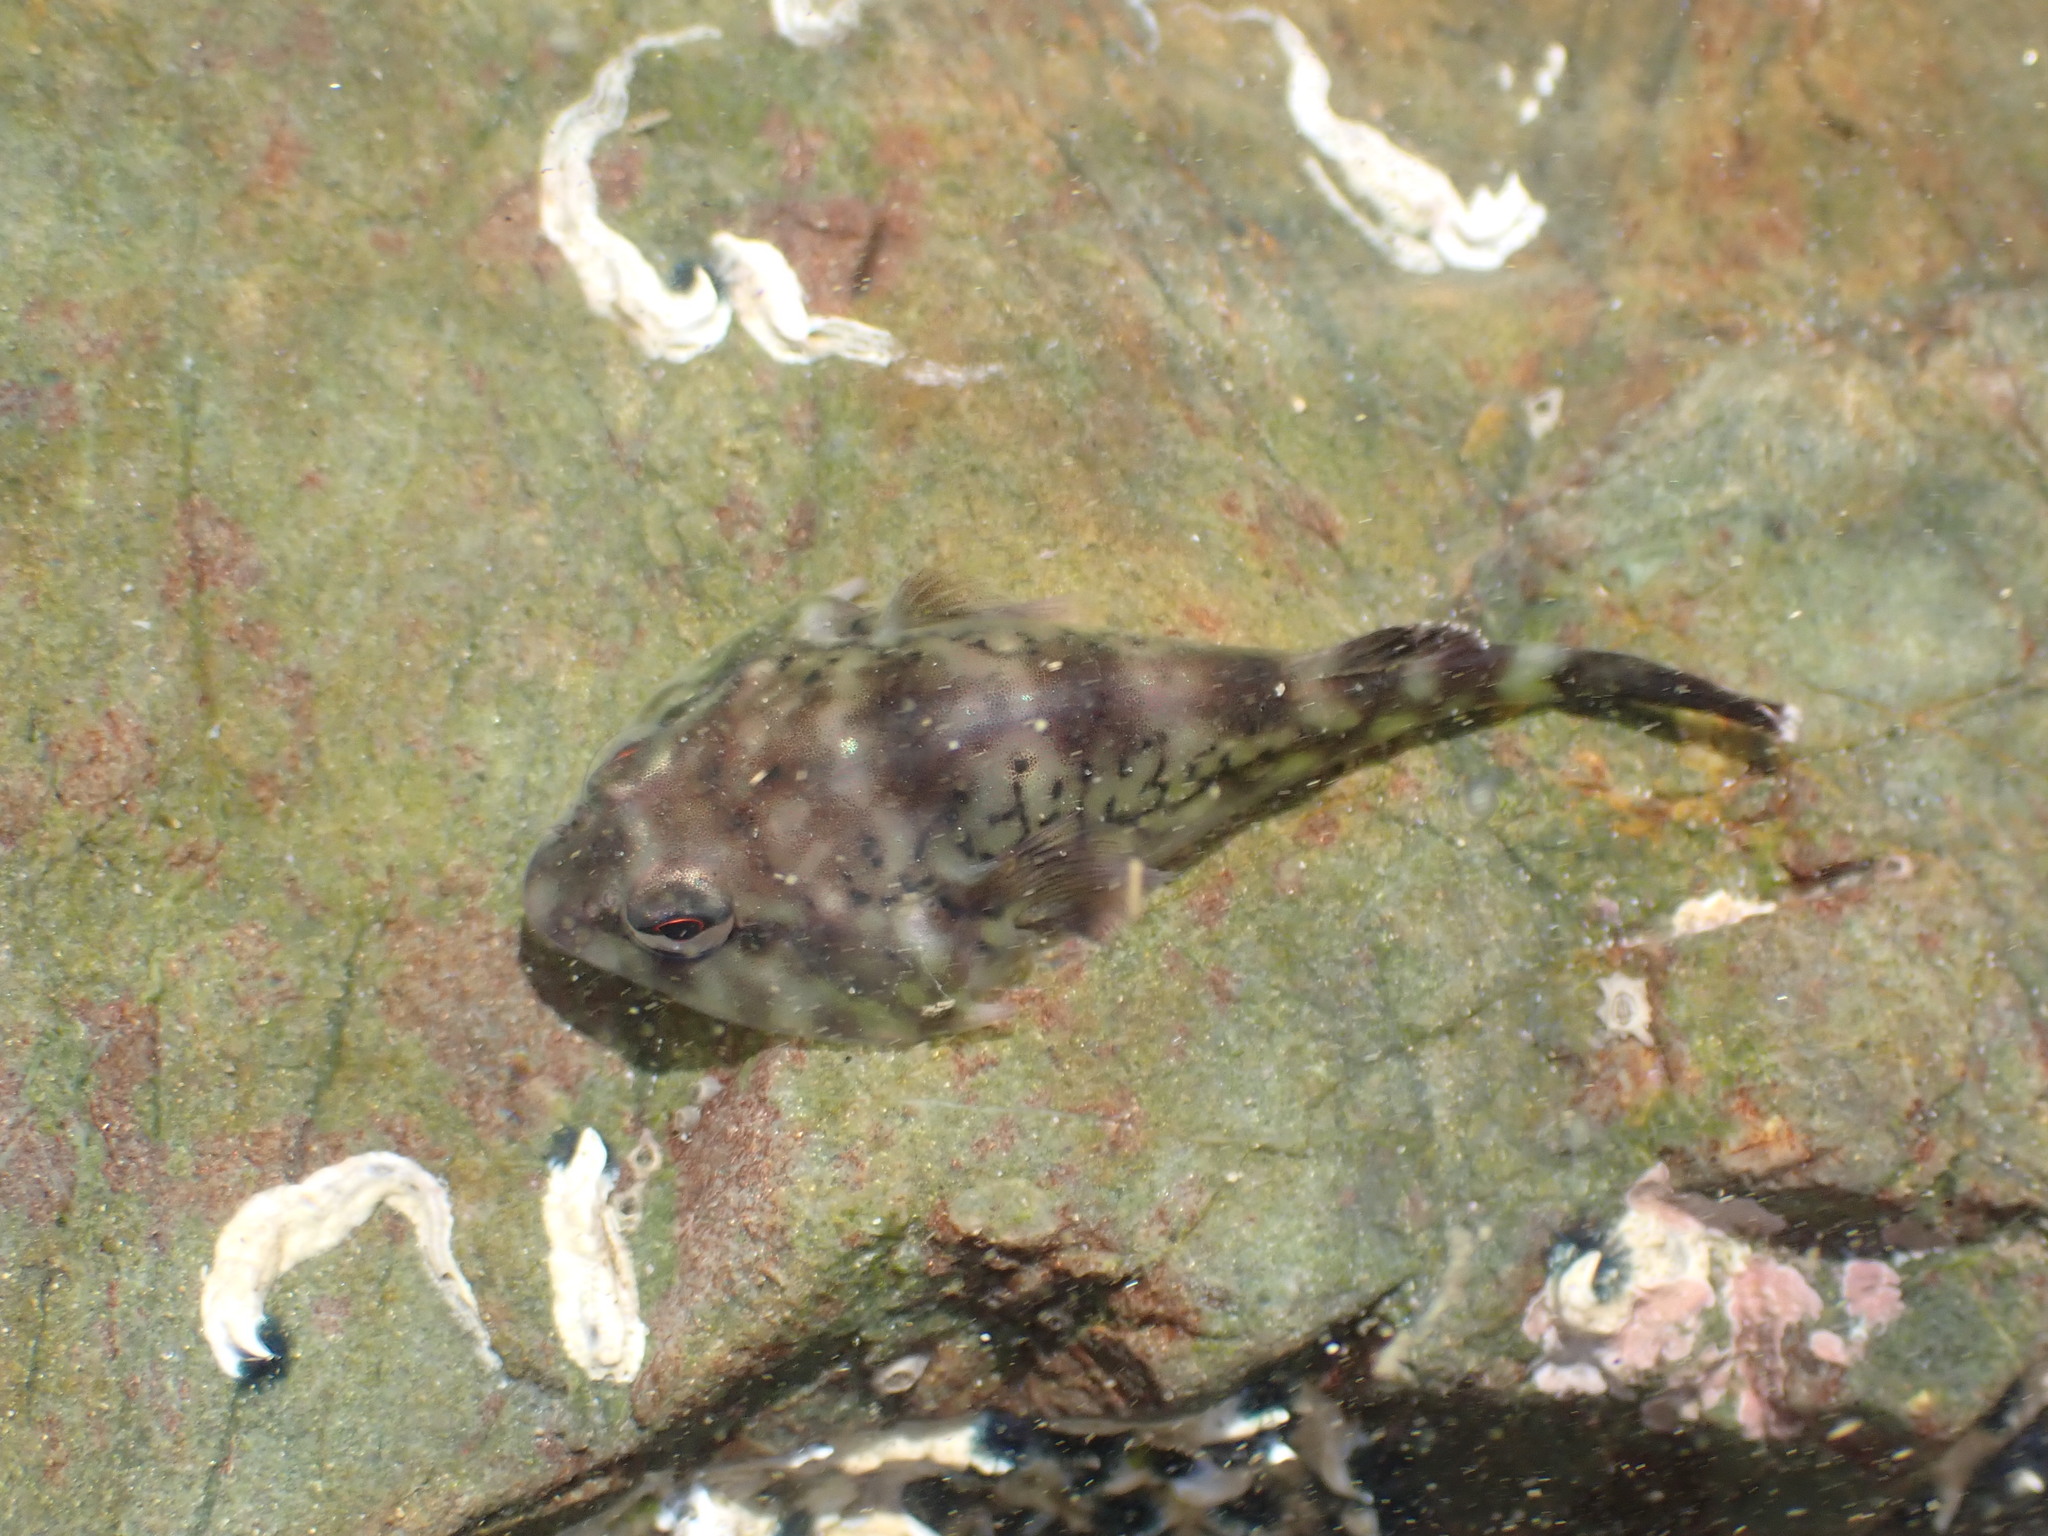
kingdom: Animalia
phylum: Chordata
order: Gobiesociformes
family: Gobiesocidae
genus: Diplocrepis
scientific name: Diplocrepis puniceus
